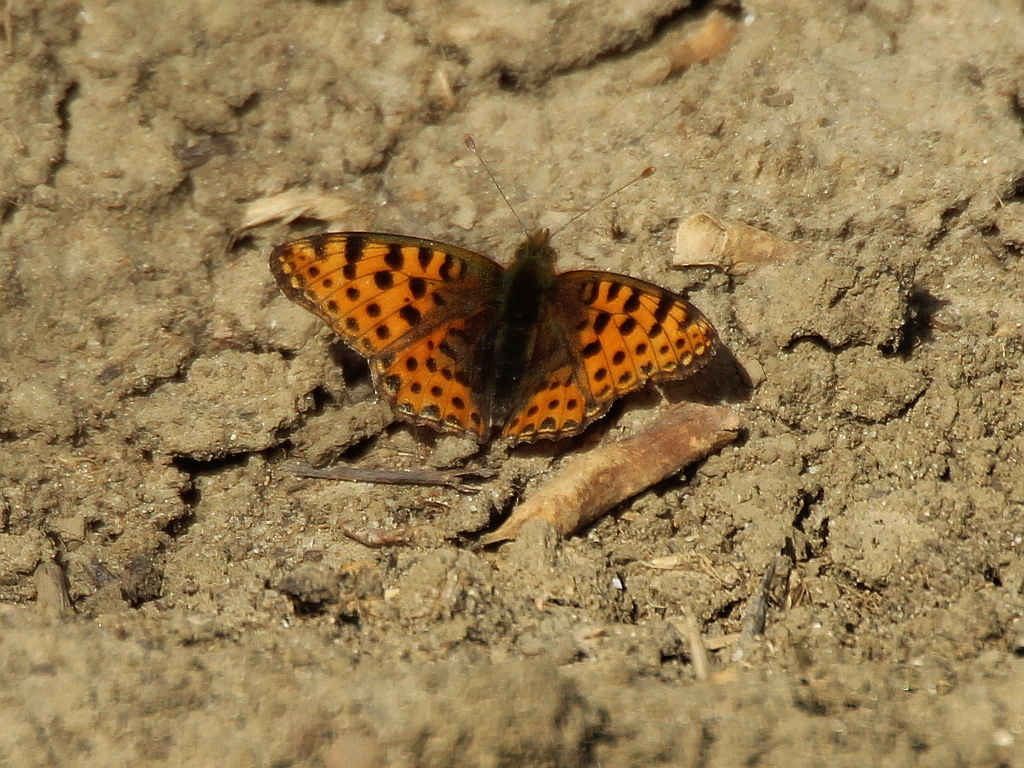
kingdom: Animalia
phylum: Arthropoda
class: Insecta
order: Lepidoptera
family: Nymphalidae
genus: Issoria
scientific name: Issoria lathonia
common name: Queen of spain fritillary
